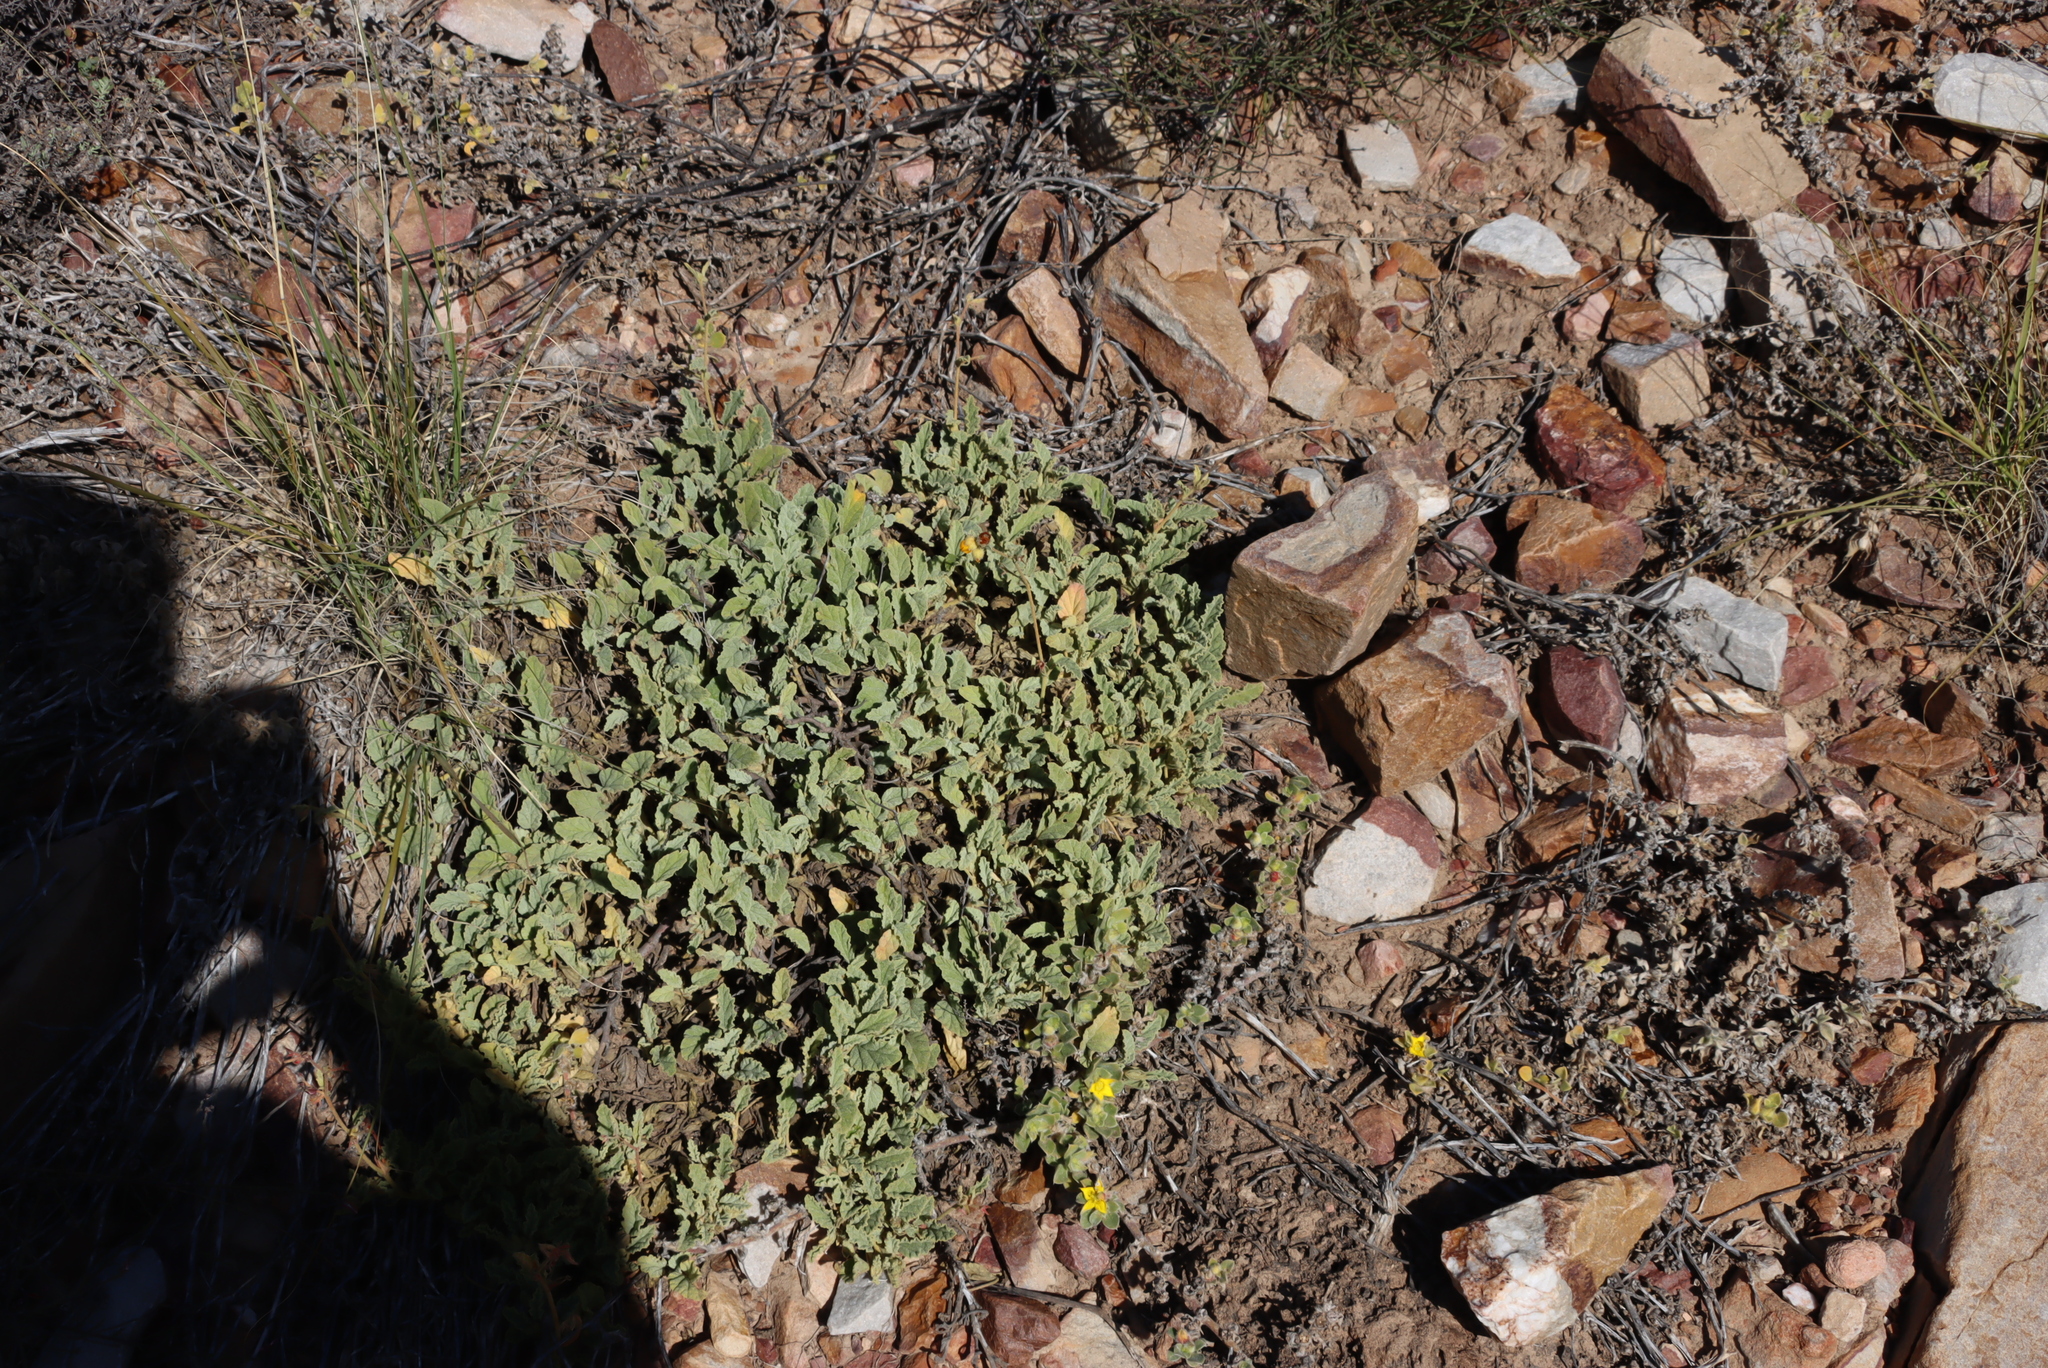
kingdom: Plantae
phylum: Tracheophyta
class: Magnoliopsida
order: Malvales
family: Malvaceae
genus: Hermannia
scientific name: Hermannia althaeifolia
